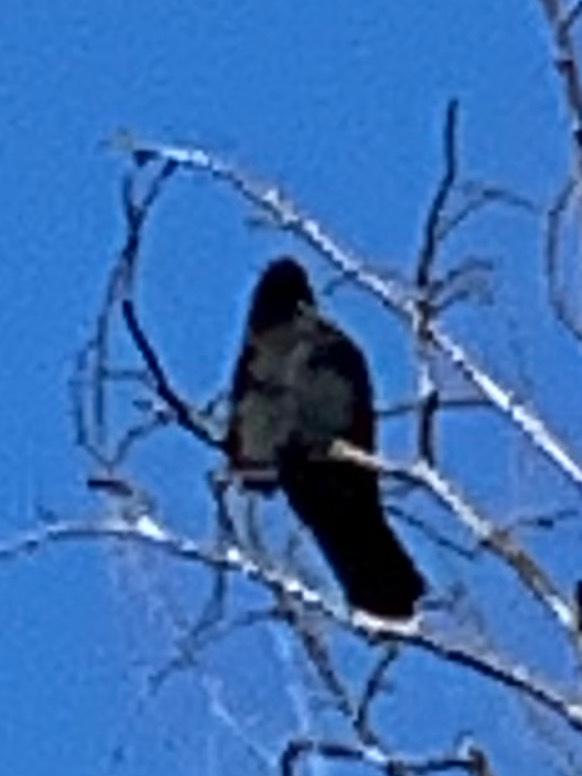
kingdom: Animalia
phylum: Chordata
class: Aves
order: Passeriformes
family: Corvidae
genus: Corvus
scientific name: Corvus brachyrhynchos
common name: American crow
